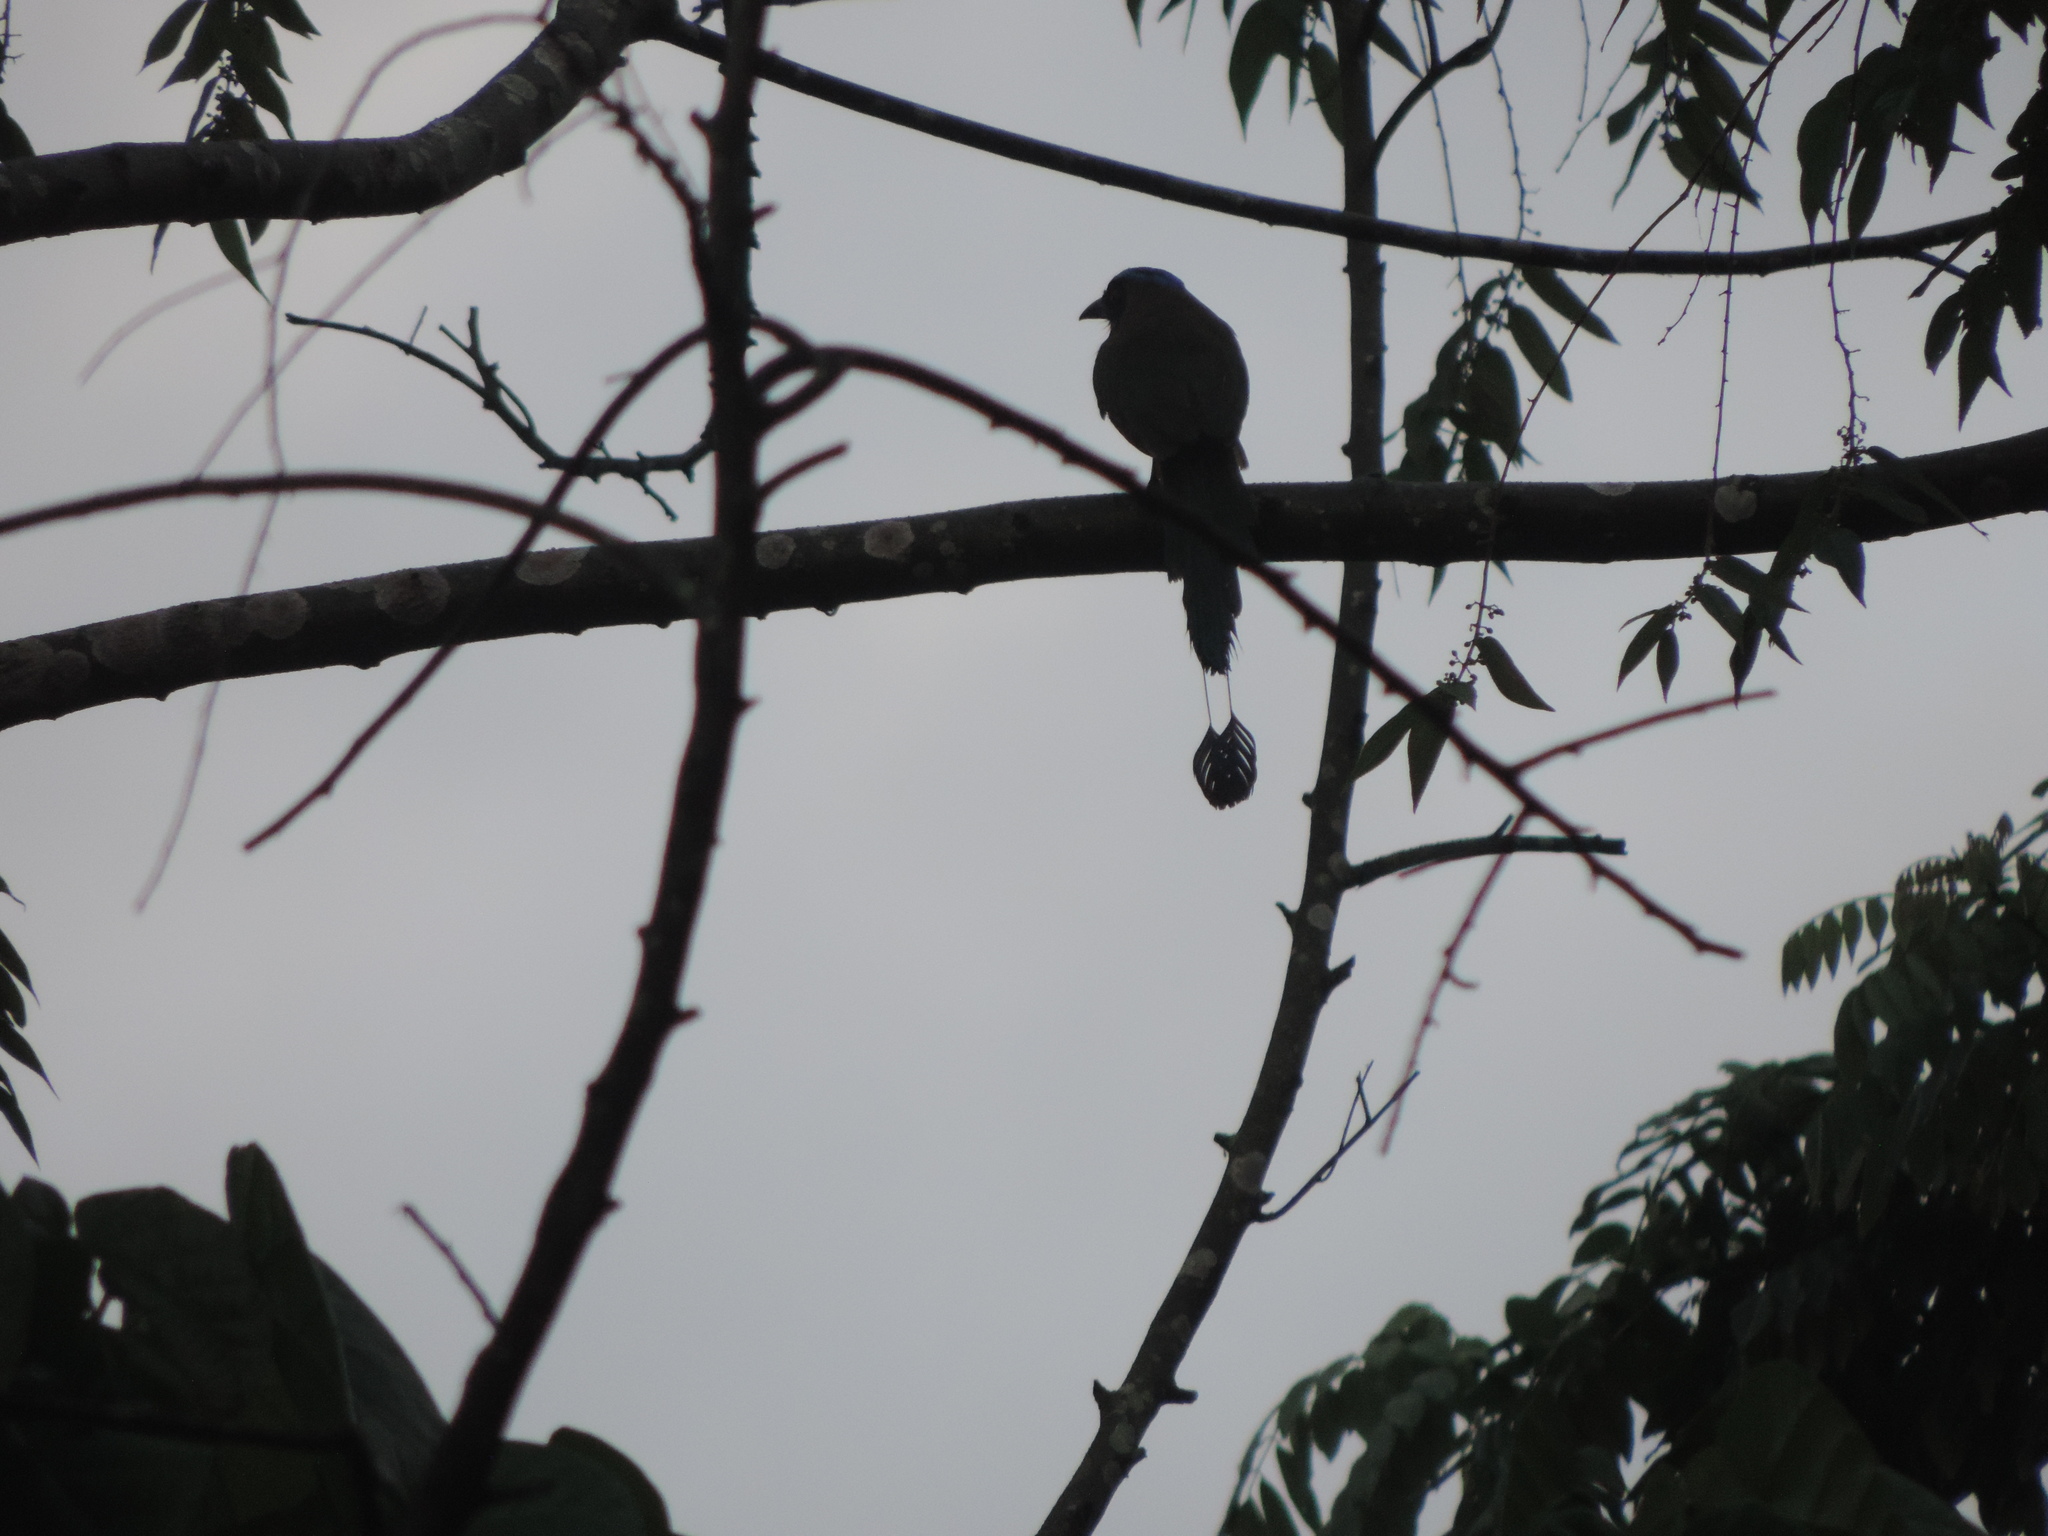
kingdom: Animalia
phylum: Chordata
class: Aves
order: Coraciiformes
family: Momotidae
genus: Momotus
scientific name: Momotus subrufescens
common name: Whooping motmot
